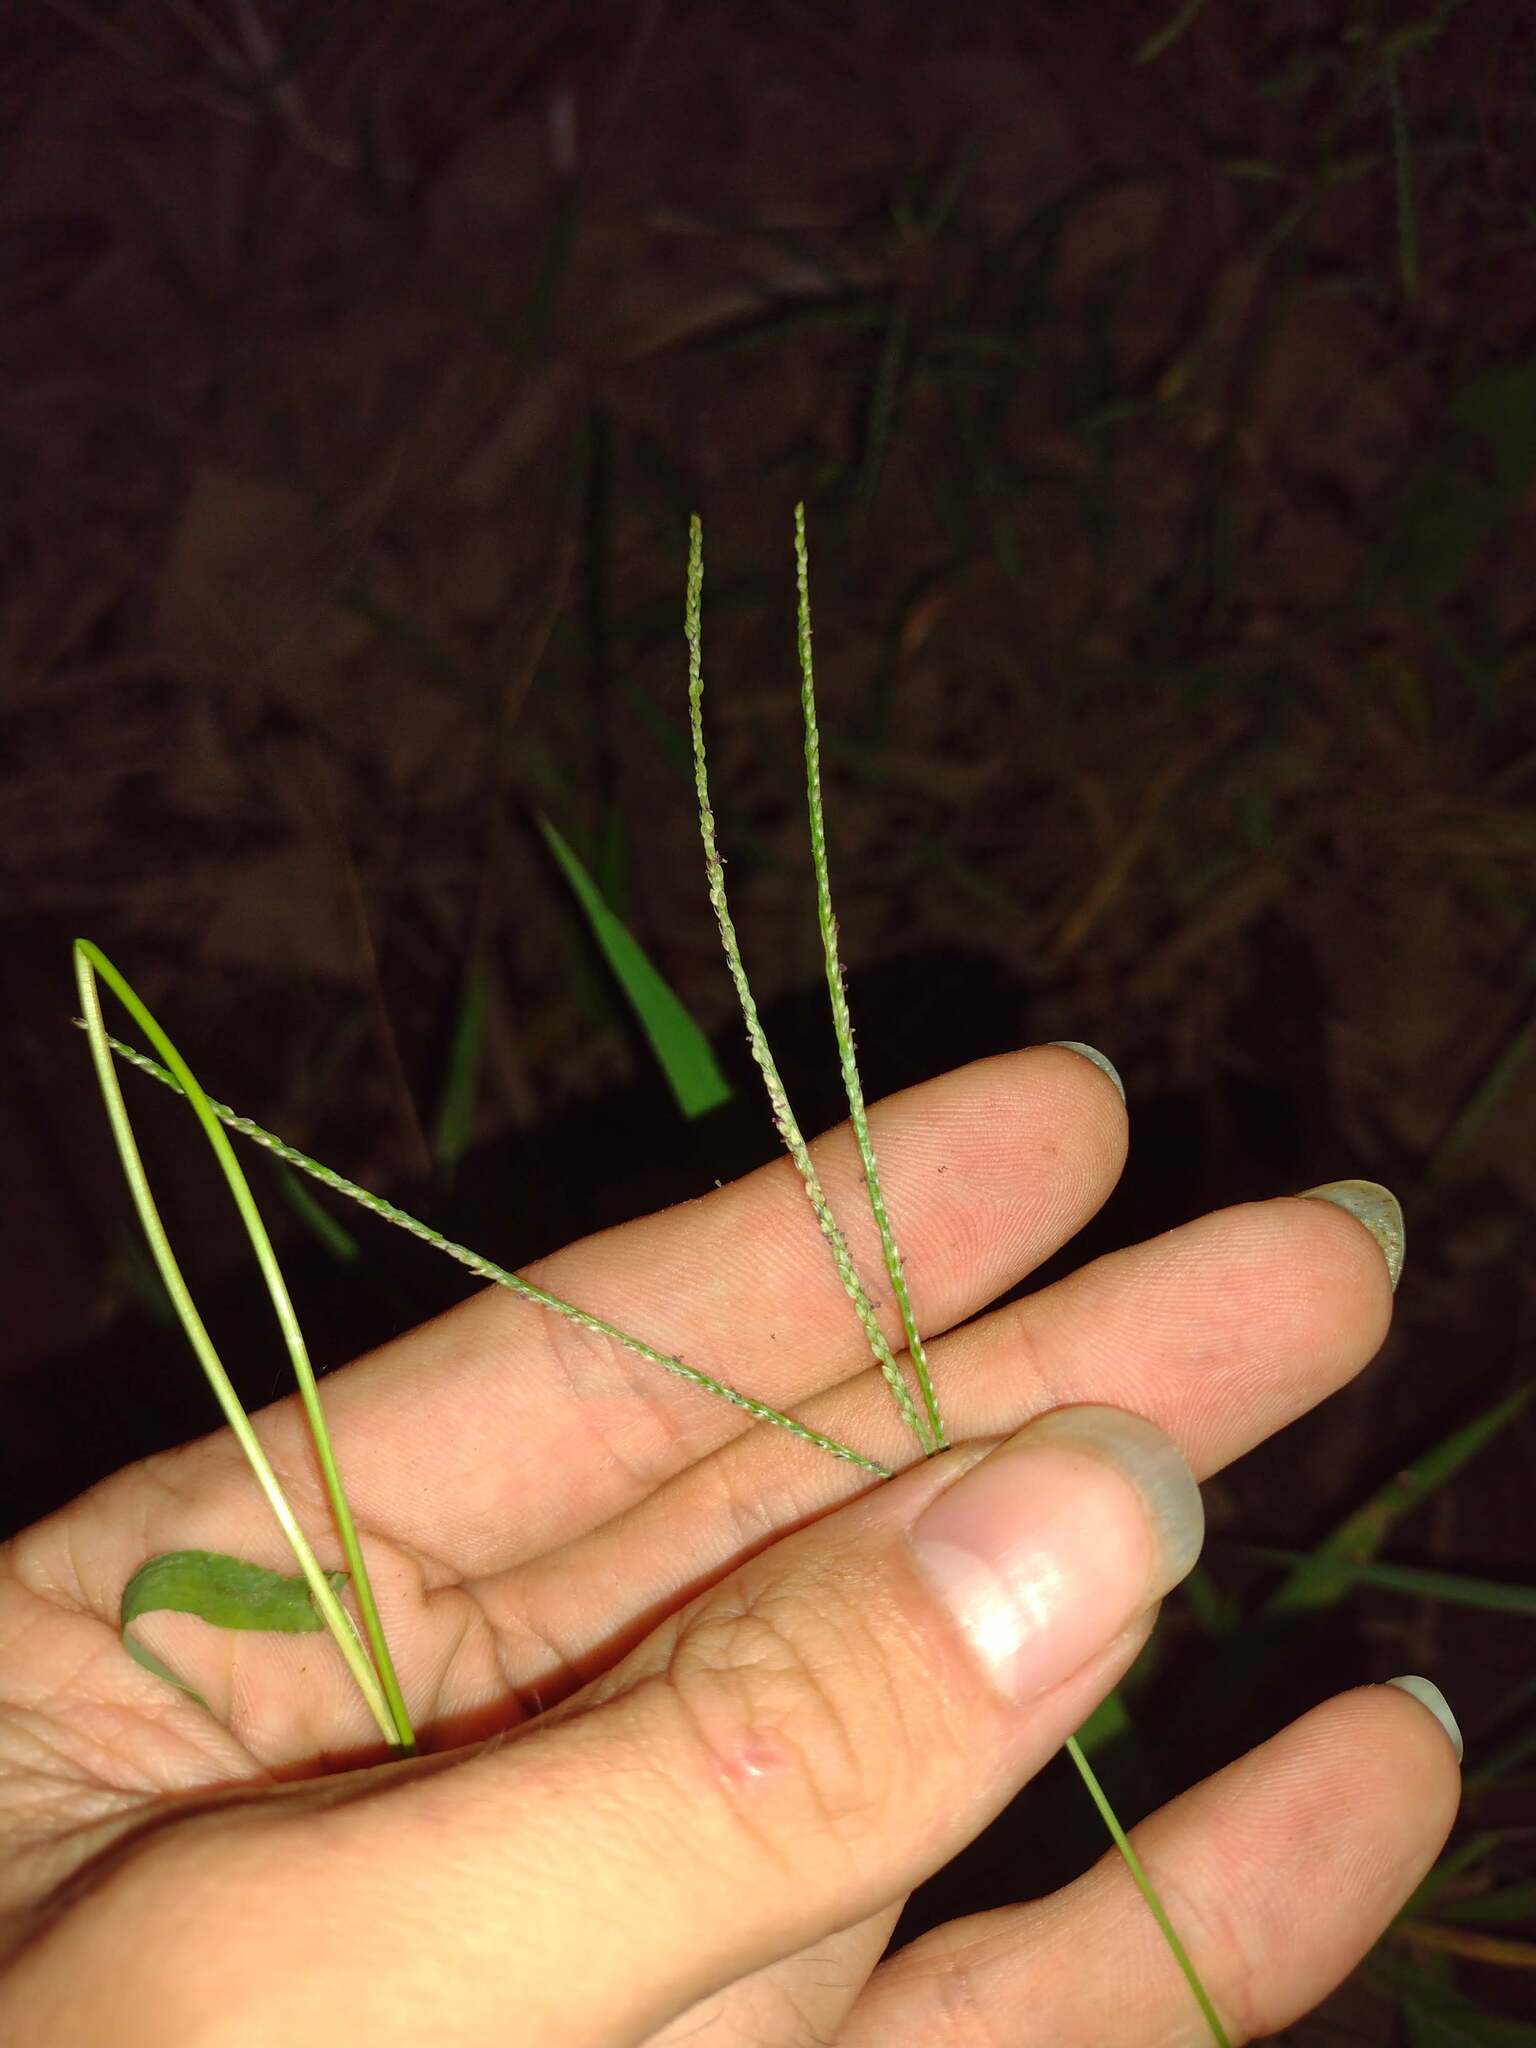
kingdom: Plantae
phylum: Tracheophyta
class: Liliopsida
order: Poales
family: Poaceae
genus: Digitaria
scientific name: Digitaria violascens
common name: Violet crabgrass
